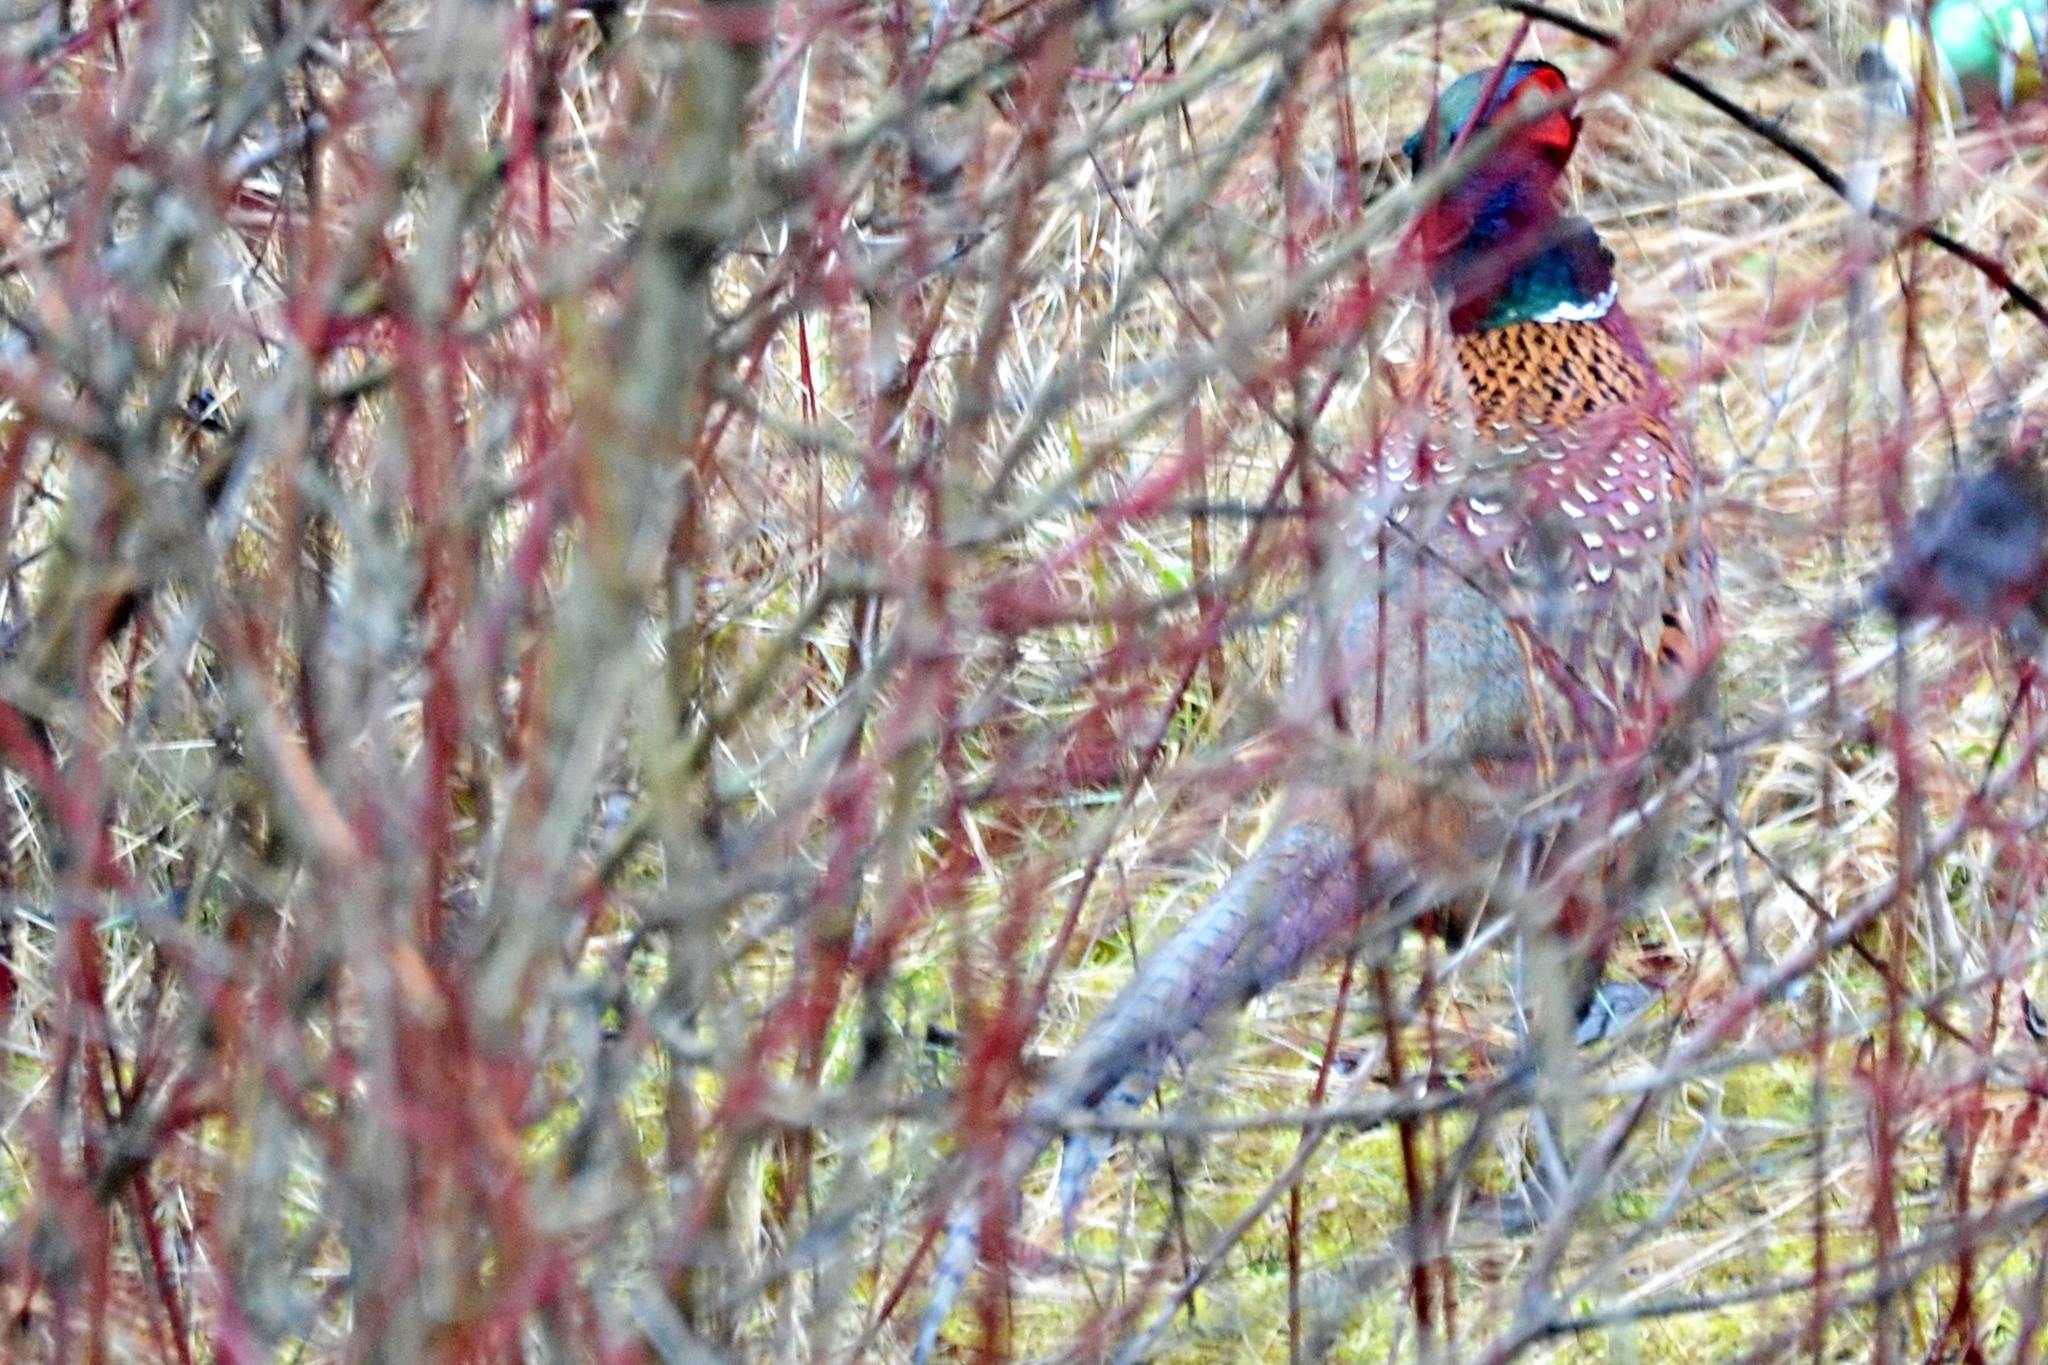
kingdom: Animalia
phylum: Chordata
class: Aves
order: Galliformes
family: Phasianidae
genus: Phasianus
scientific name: Phasianus colchicus
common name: Common pheasant
